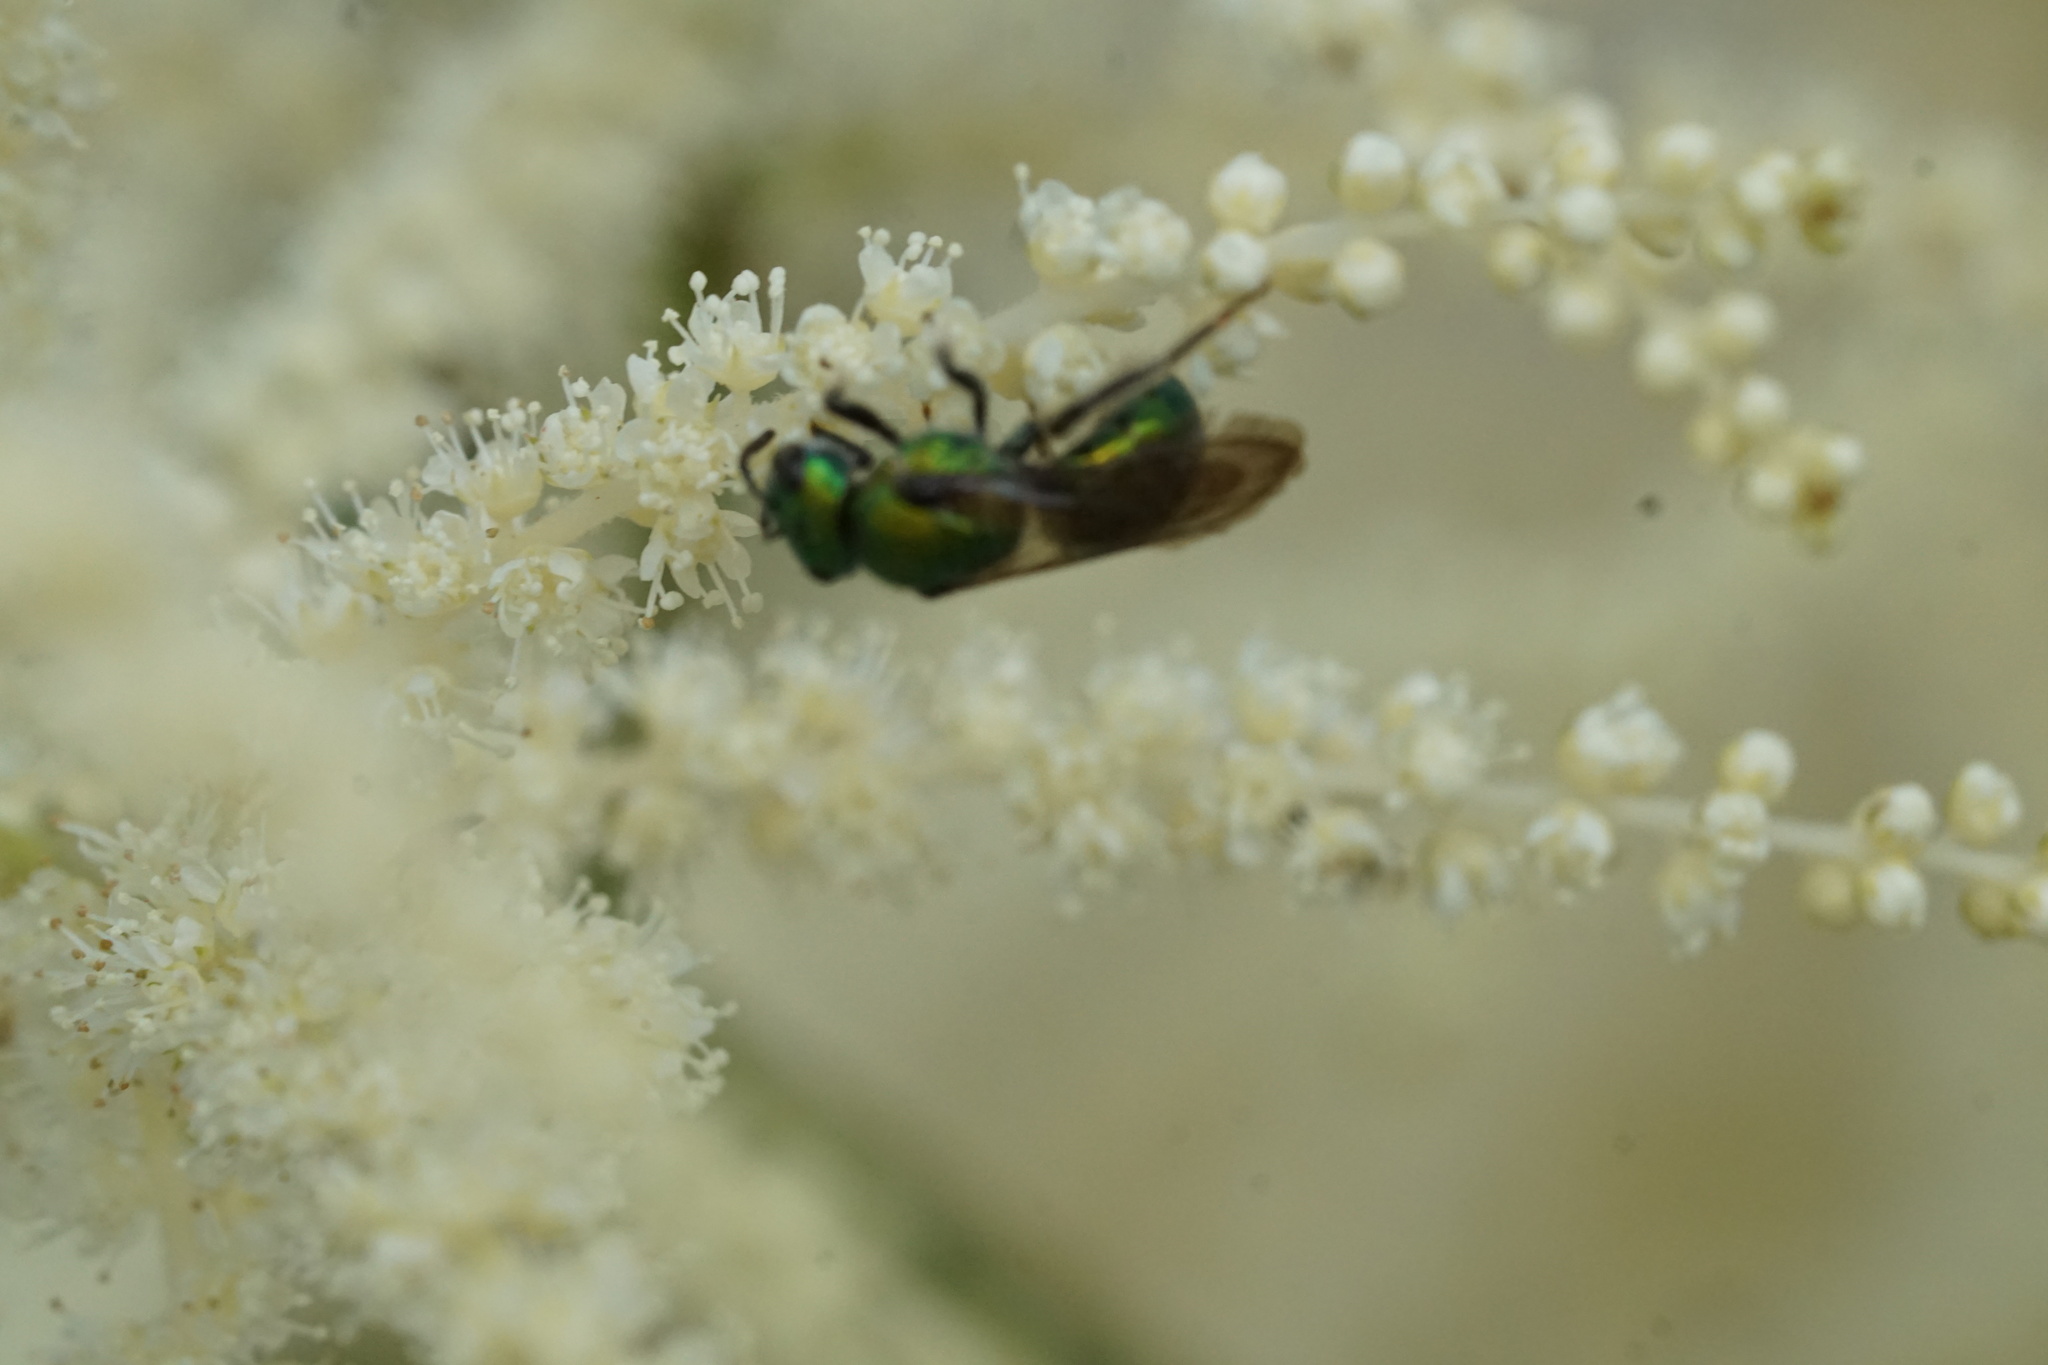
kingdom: Animalia
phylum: Arthropoda
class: Insecta
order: Hymenoptera
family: Halictidae
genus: Augochlora
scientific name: Augochlora pura
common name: Pure green sweat bee
